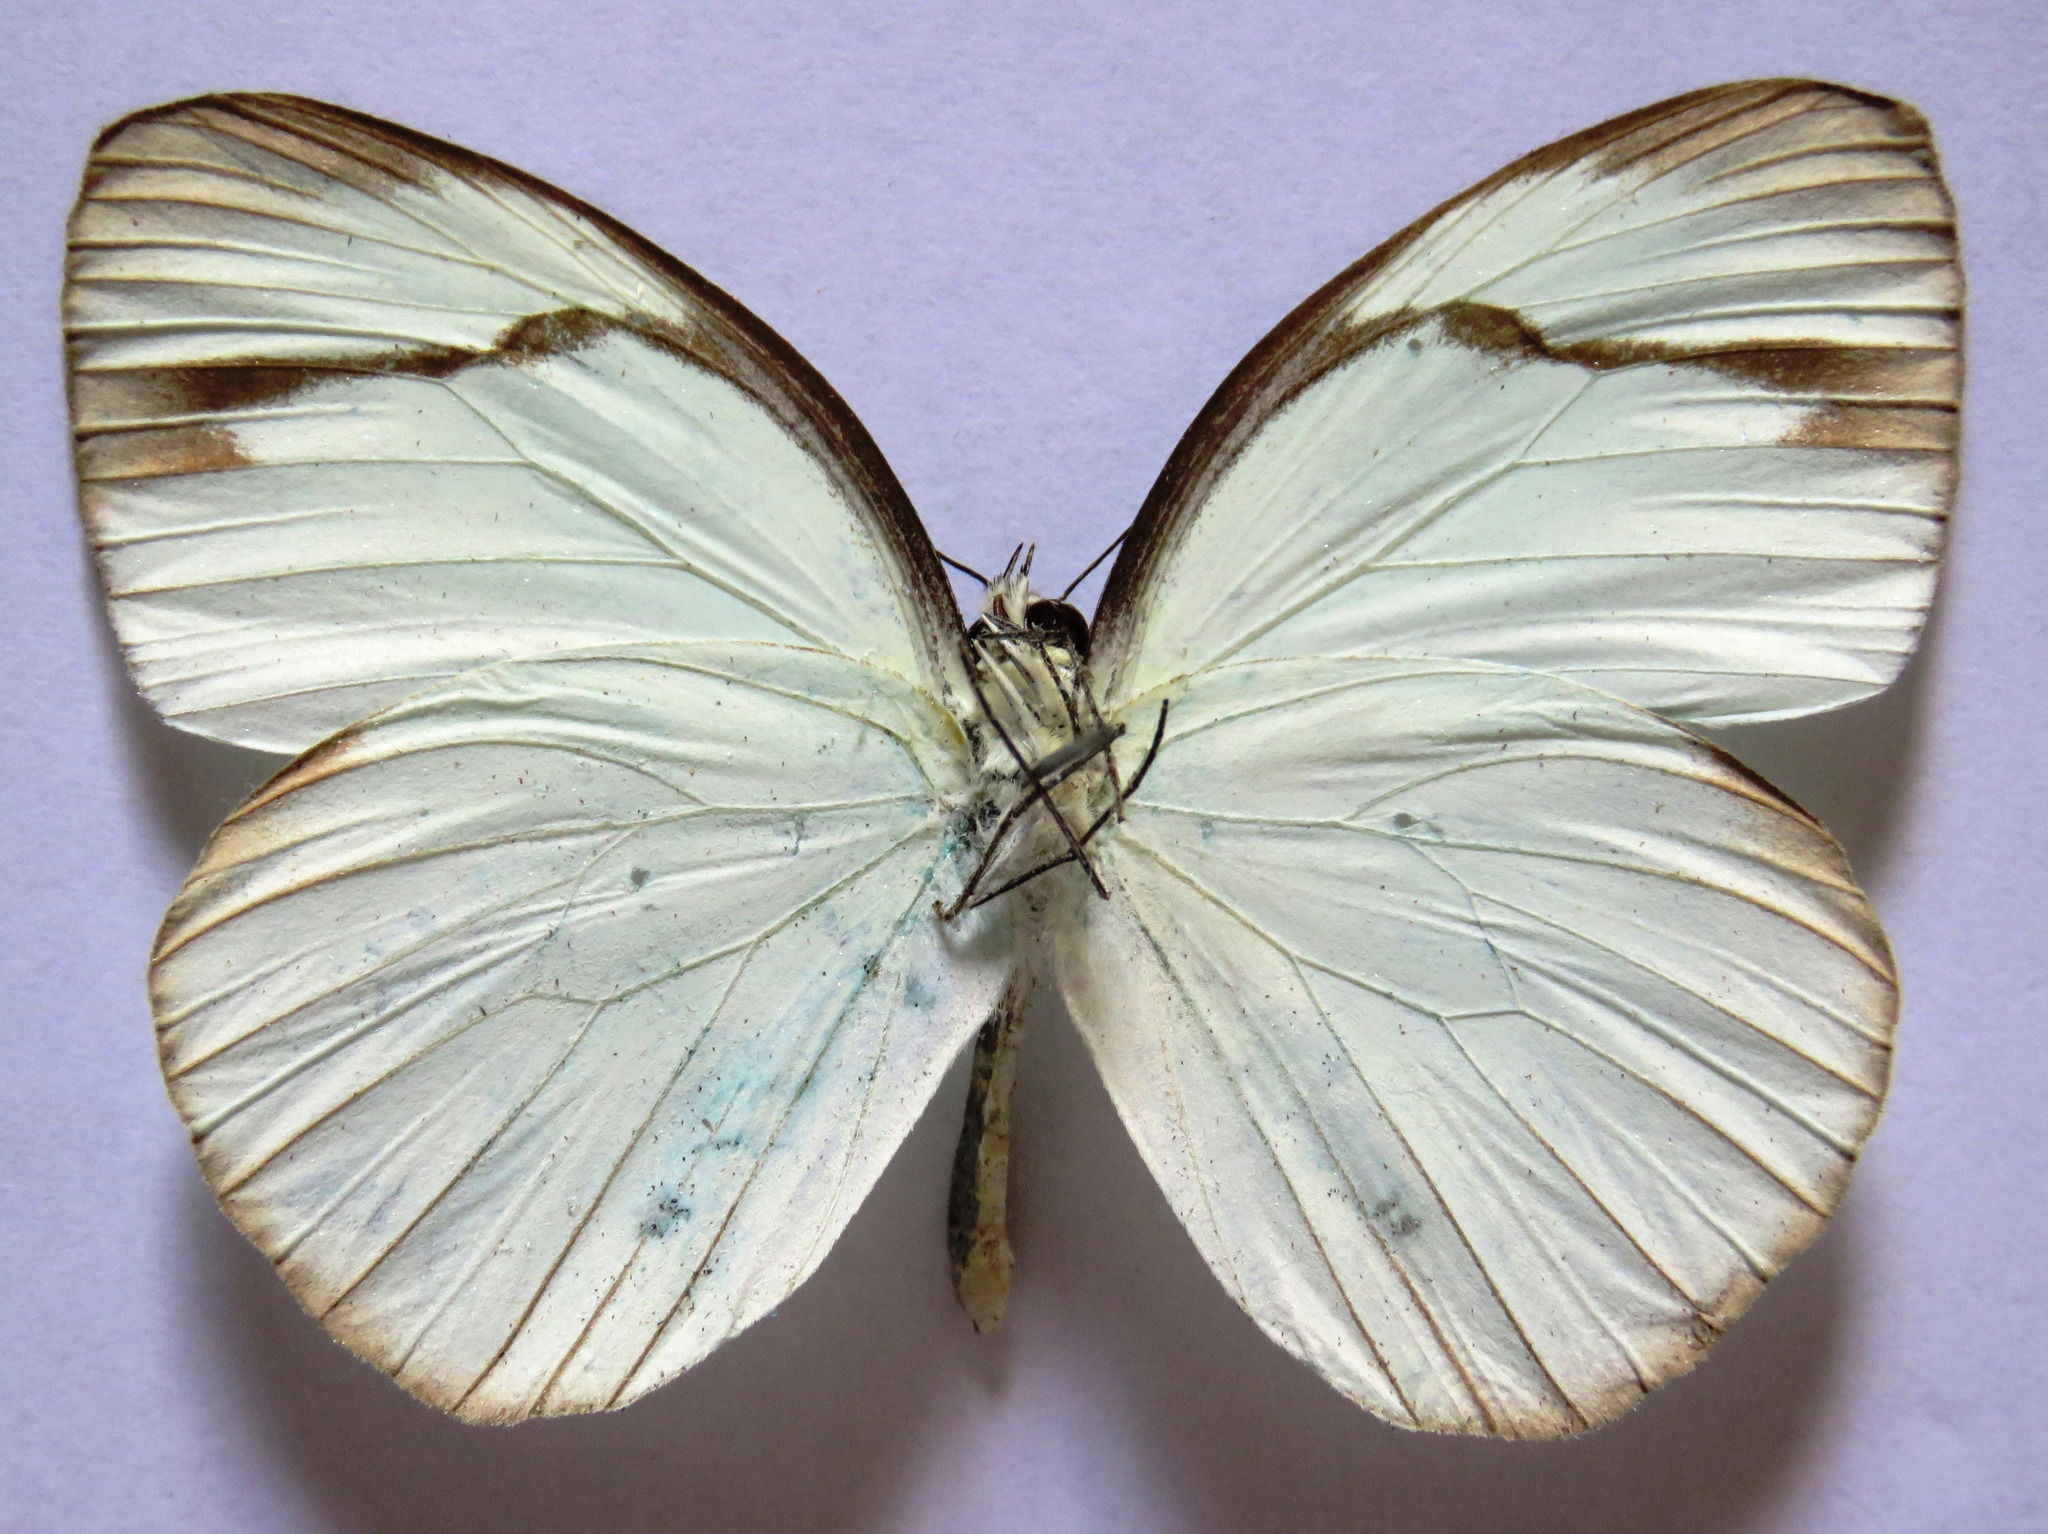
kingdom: Animalia
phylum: Arthropoda
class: Insecta
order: Lepidoptera
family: Pieridae
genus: Itaballia
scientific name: Itaballia demophile
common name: Cross-barred white
